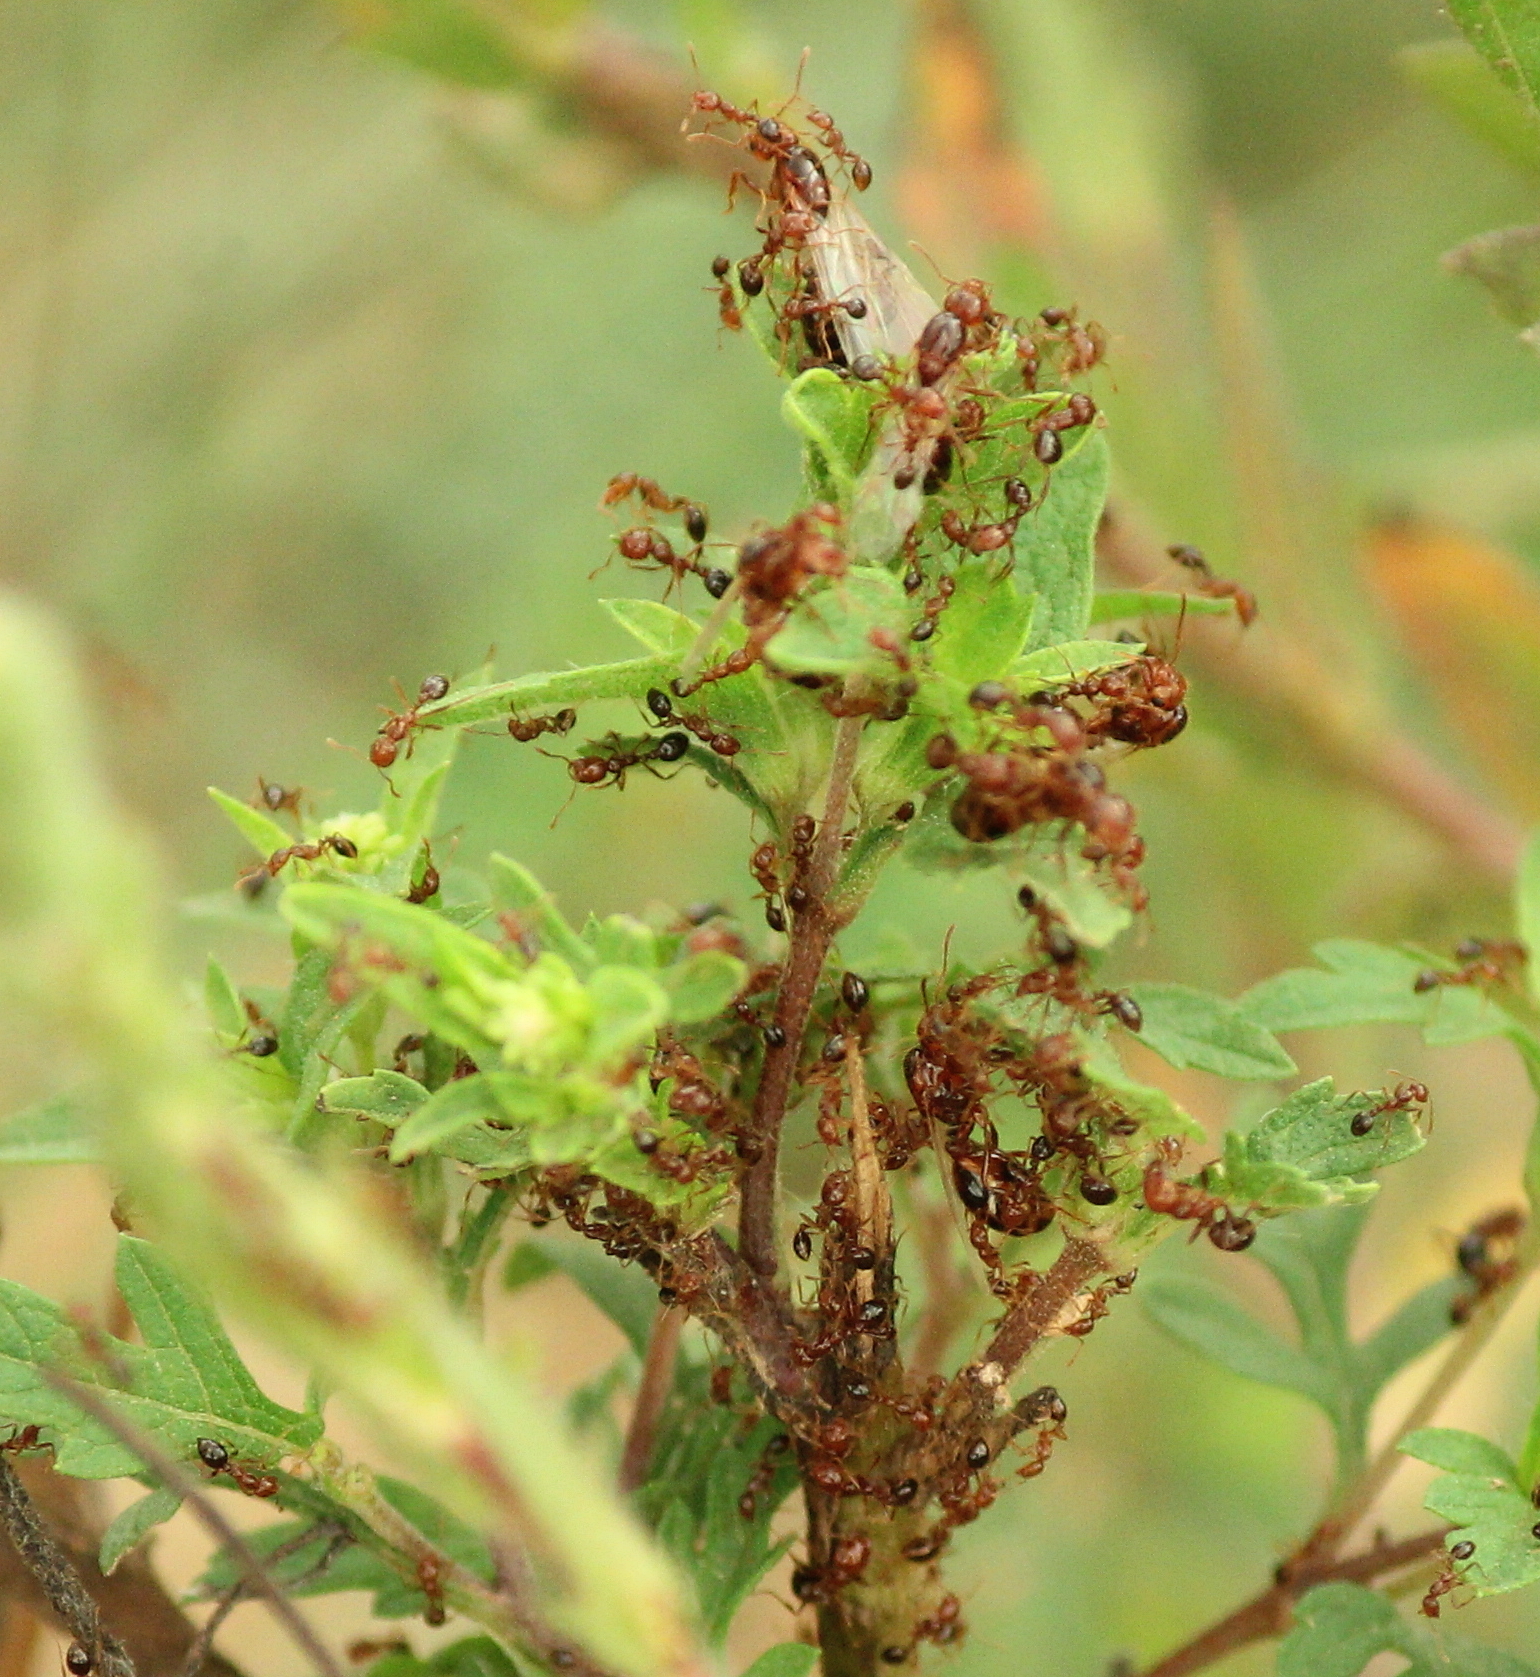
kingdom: Animalia
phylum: Arthropoda
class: Insecta
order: Hymenoptera
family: Formicidae
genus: Solenopsis
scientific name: Solenopsis invicta
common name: Red imported fire ant
